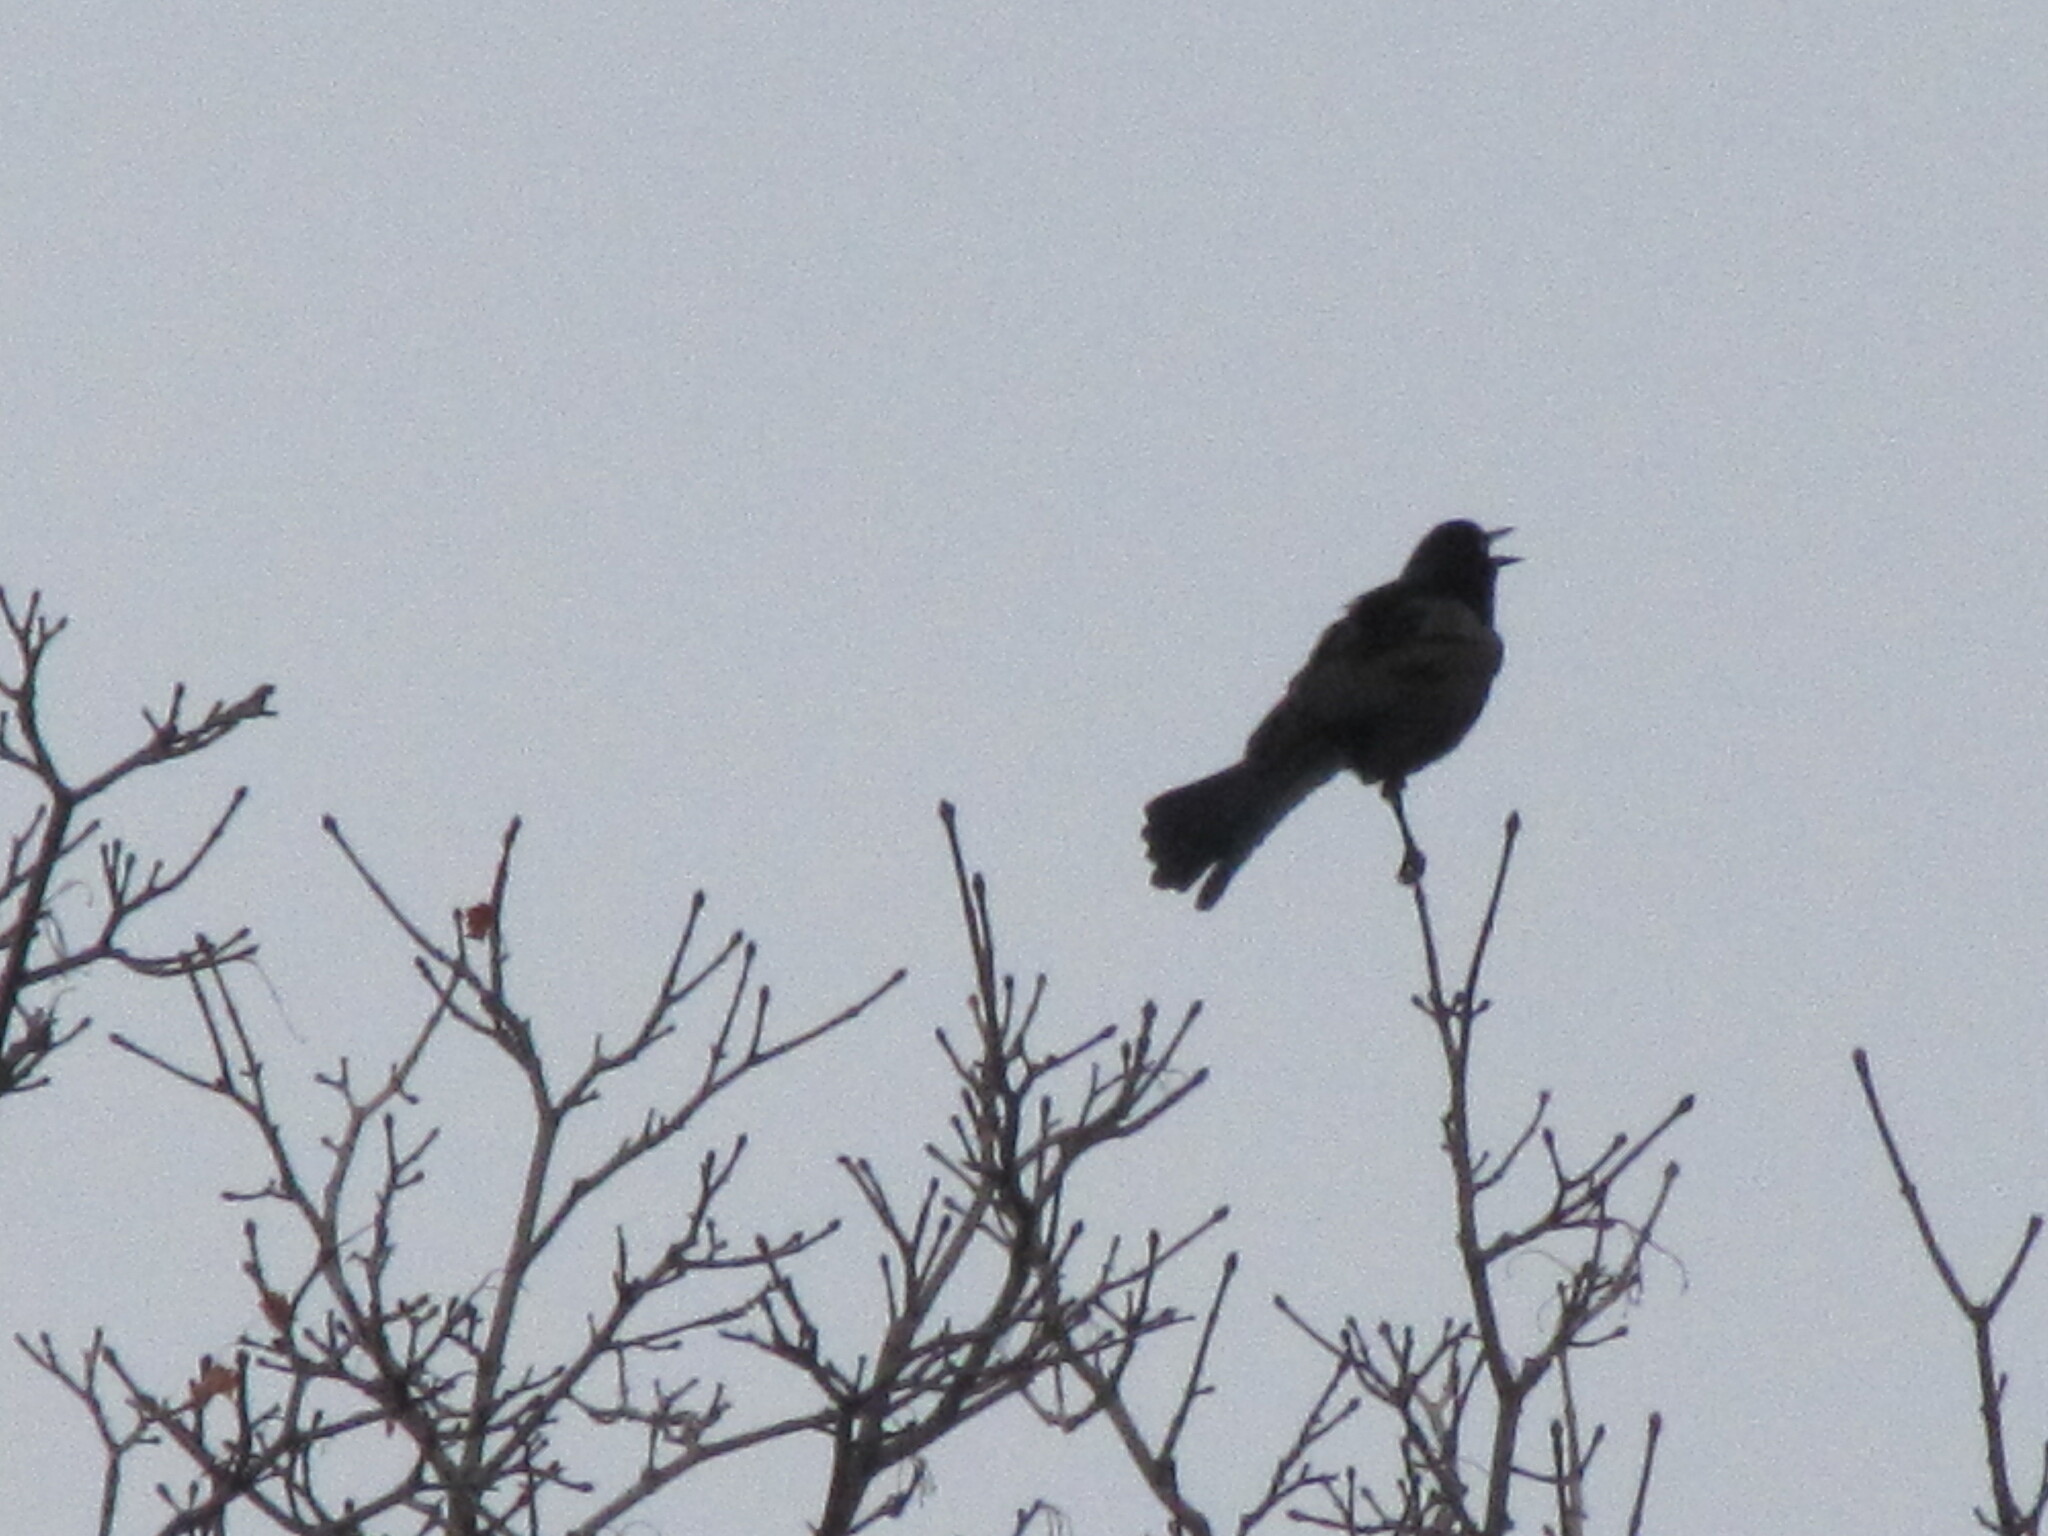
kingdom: Animalia
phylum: Chordata
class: Aves
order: Passeriformes
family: Icteridae
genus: Quiscalus
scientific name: Quiscalus quiscula
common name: Common grackle
